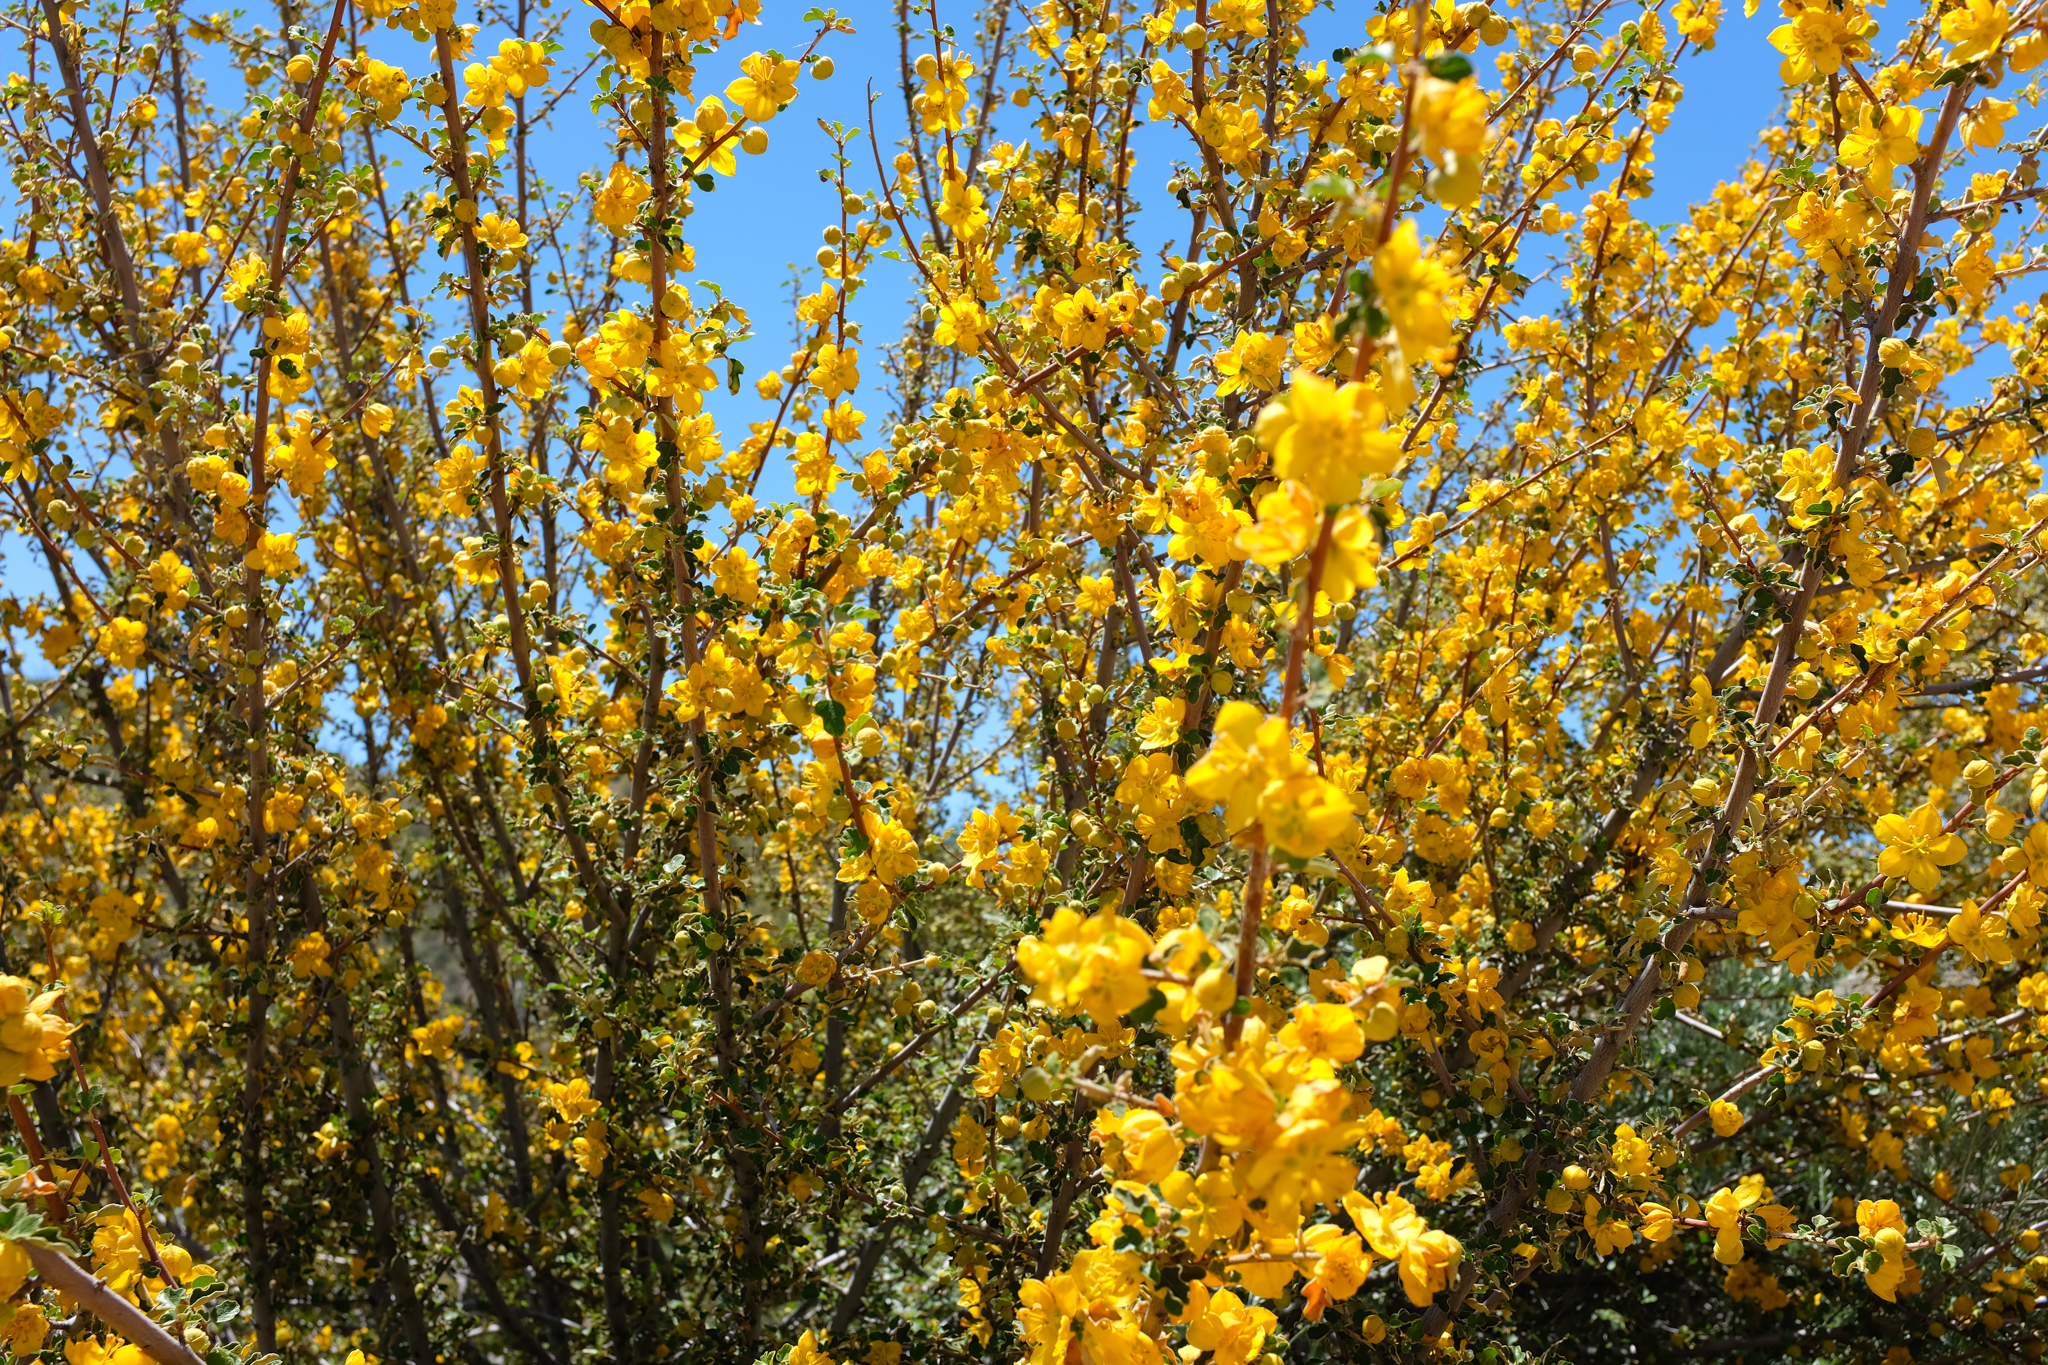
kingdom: Plantae
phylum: Tracheophyta
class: Magnoliopsida
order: Malvales
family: Malvaceae
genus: Fremontodendron
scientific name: Fremontodendron californicum
